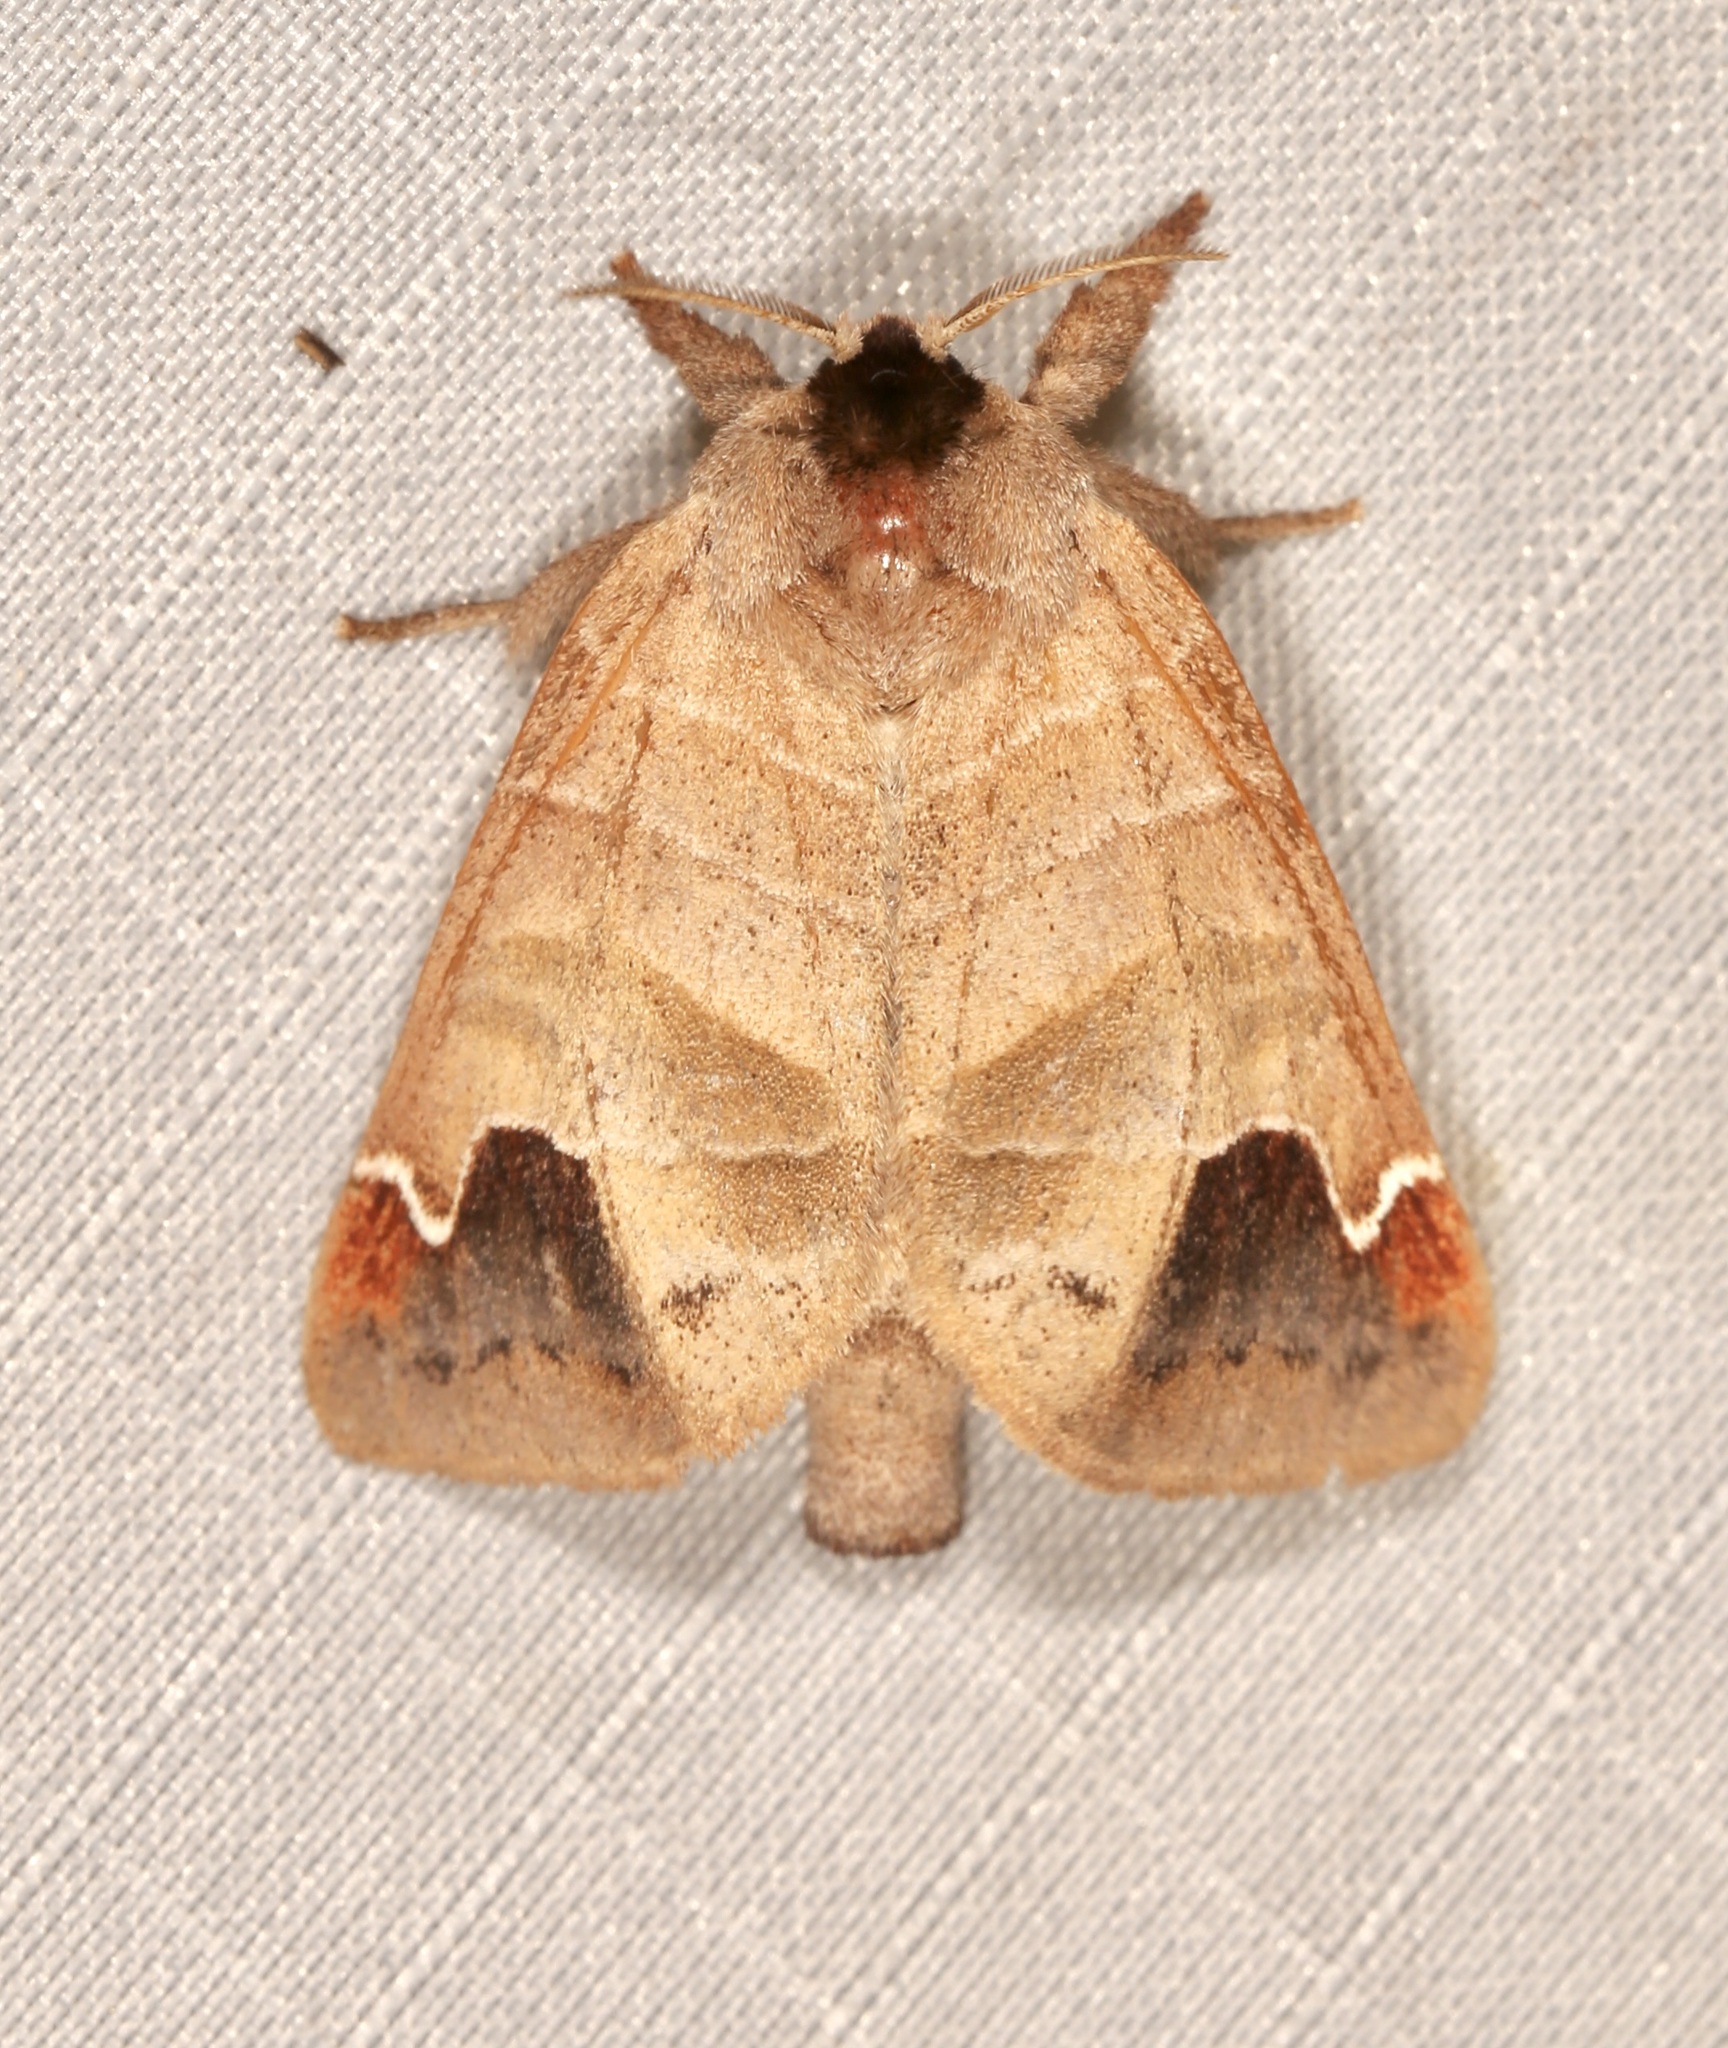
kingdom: Animalia
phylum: Arthropoda
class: Insecta
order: Lepidoptera
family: Notodontidae
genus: Clostera
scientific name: Clostera albosigma
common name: Sigmoid prominent
